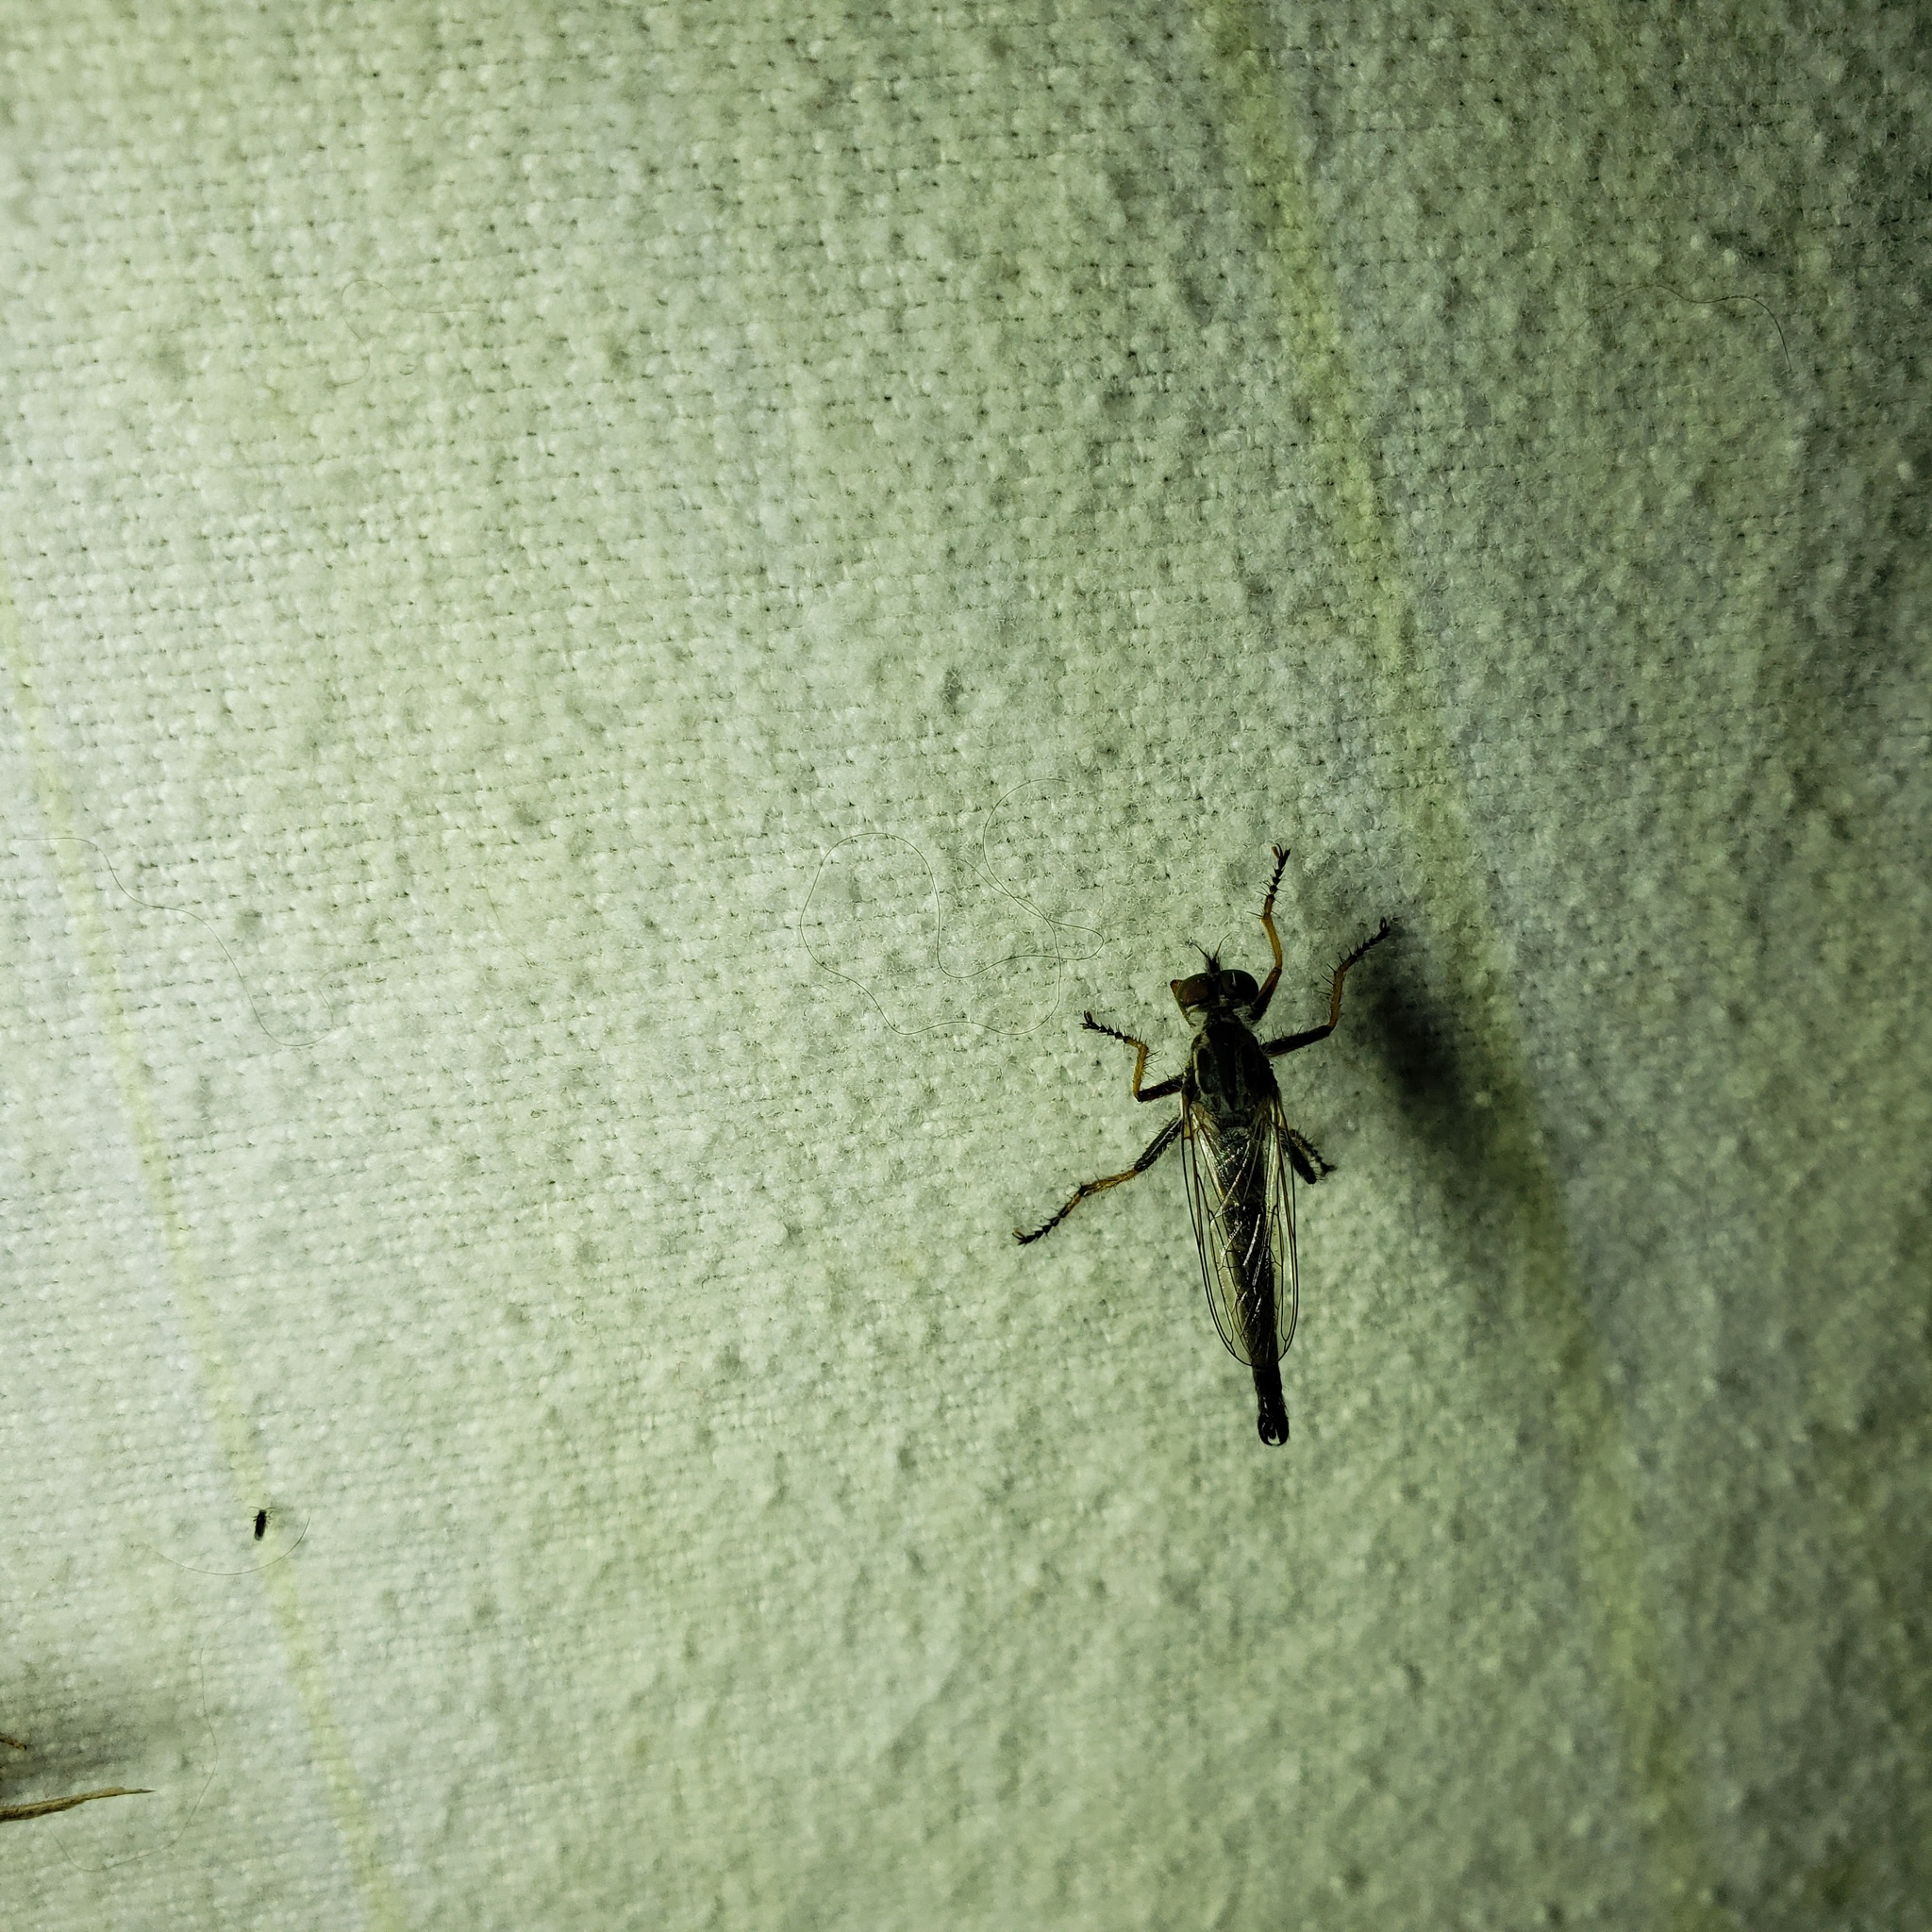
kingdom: Animalia
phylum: Arthropoda
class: Insecta
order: Diptera
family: Asilidae
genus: Asilus
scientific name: Asilus flavofemoratus
